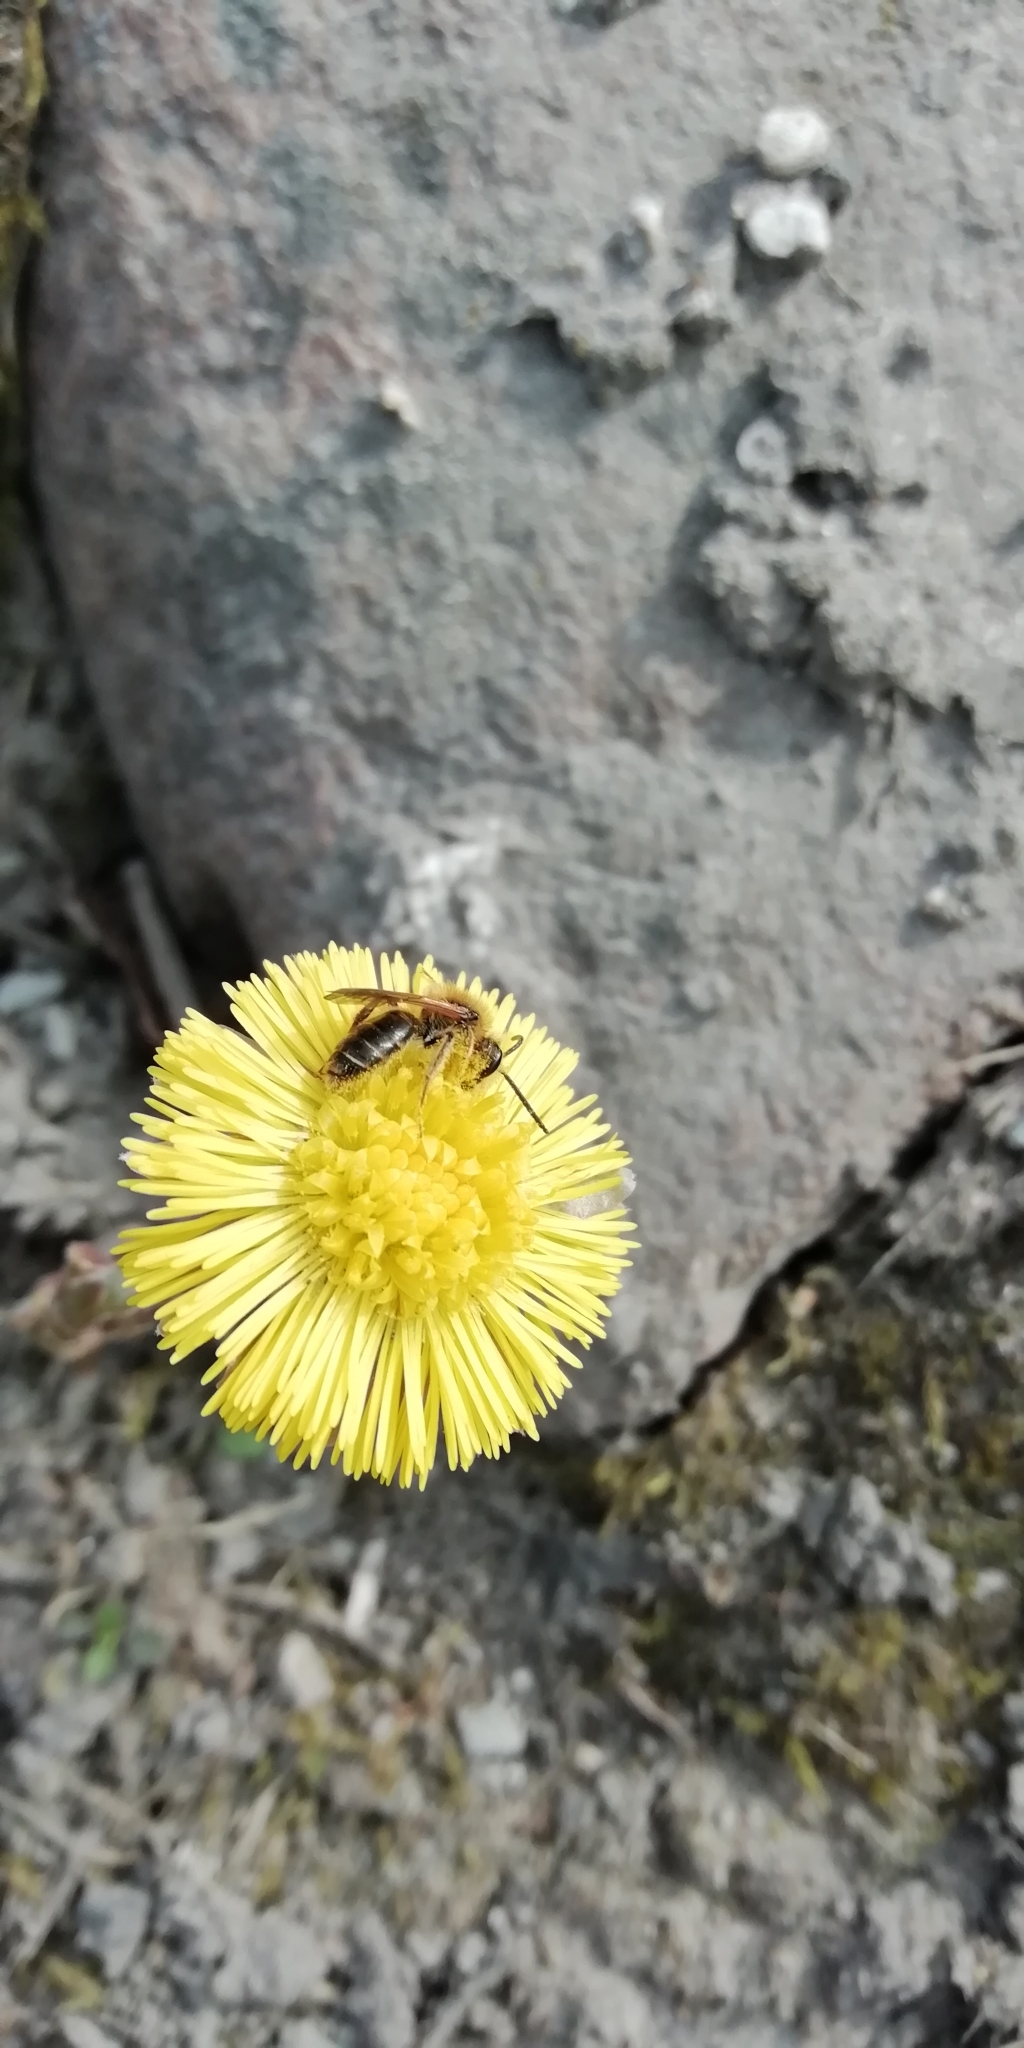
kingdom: Plantae
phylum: Tracheophyta
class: Magnoliopsida
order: Asterales
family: Asteraceae
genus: Tussilago
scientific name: Tussilago farfara
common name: Coltsfoot
